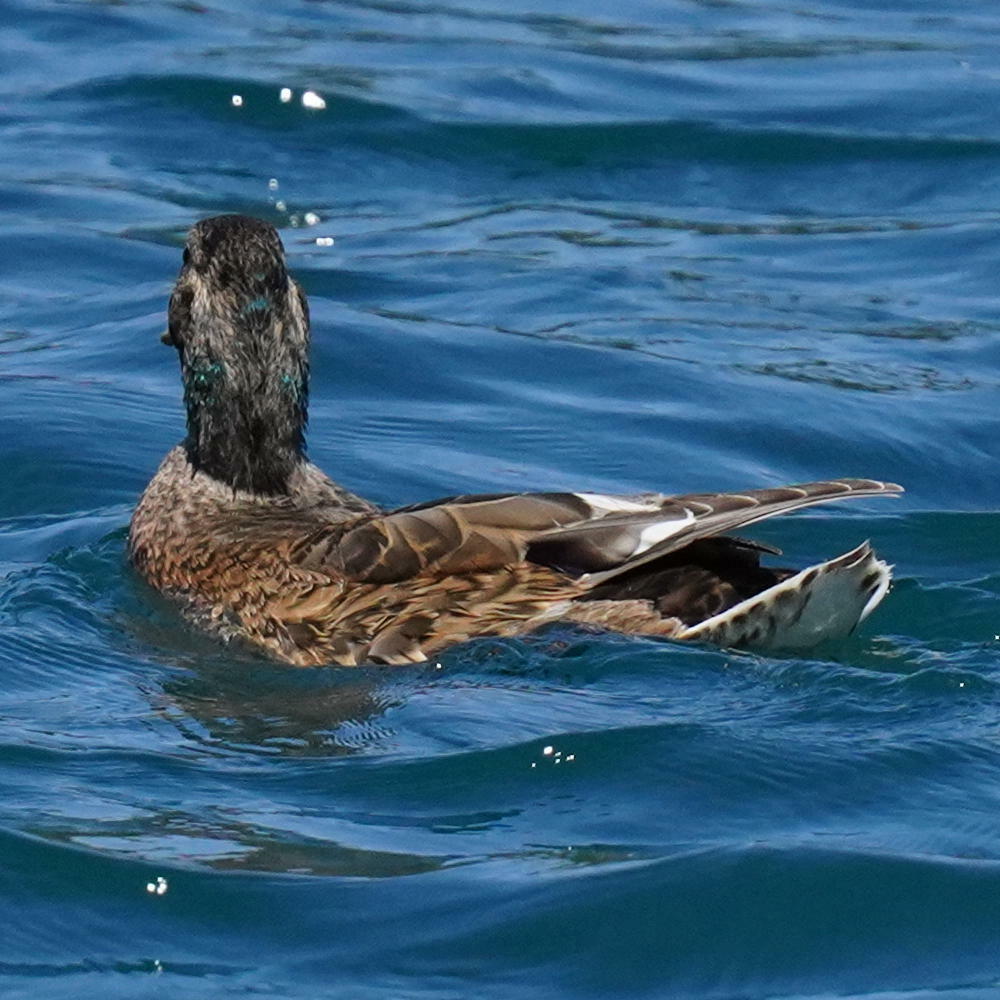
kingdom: Animalia
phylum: Chordata
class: Aves
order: Anseriformes
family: Anatidae
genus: Anas
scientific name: Anas platyrhynchos
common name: Mallard
